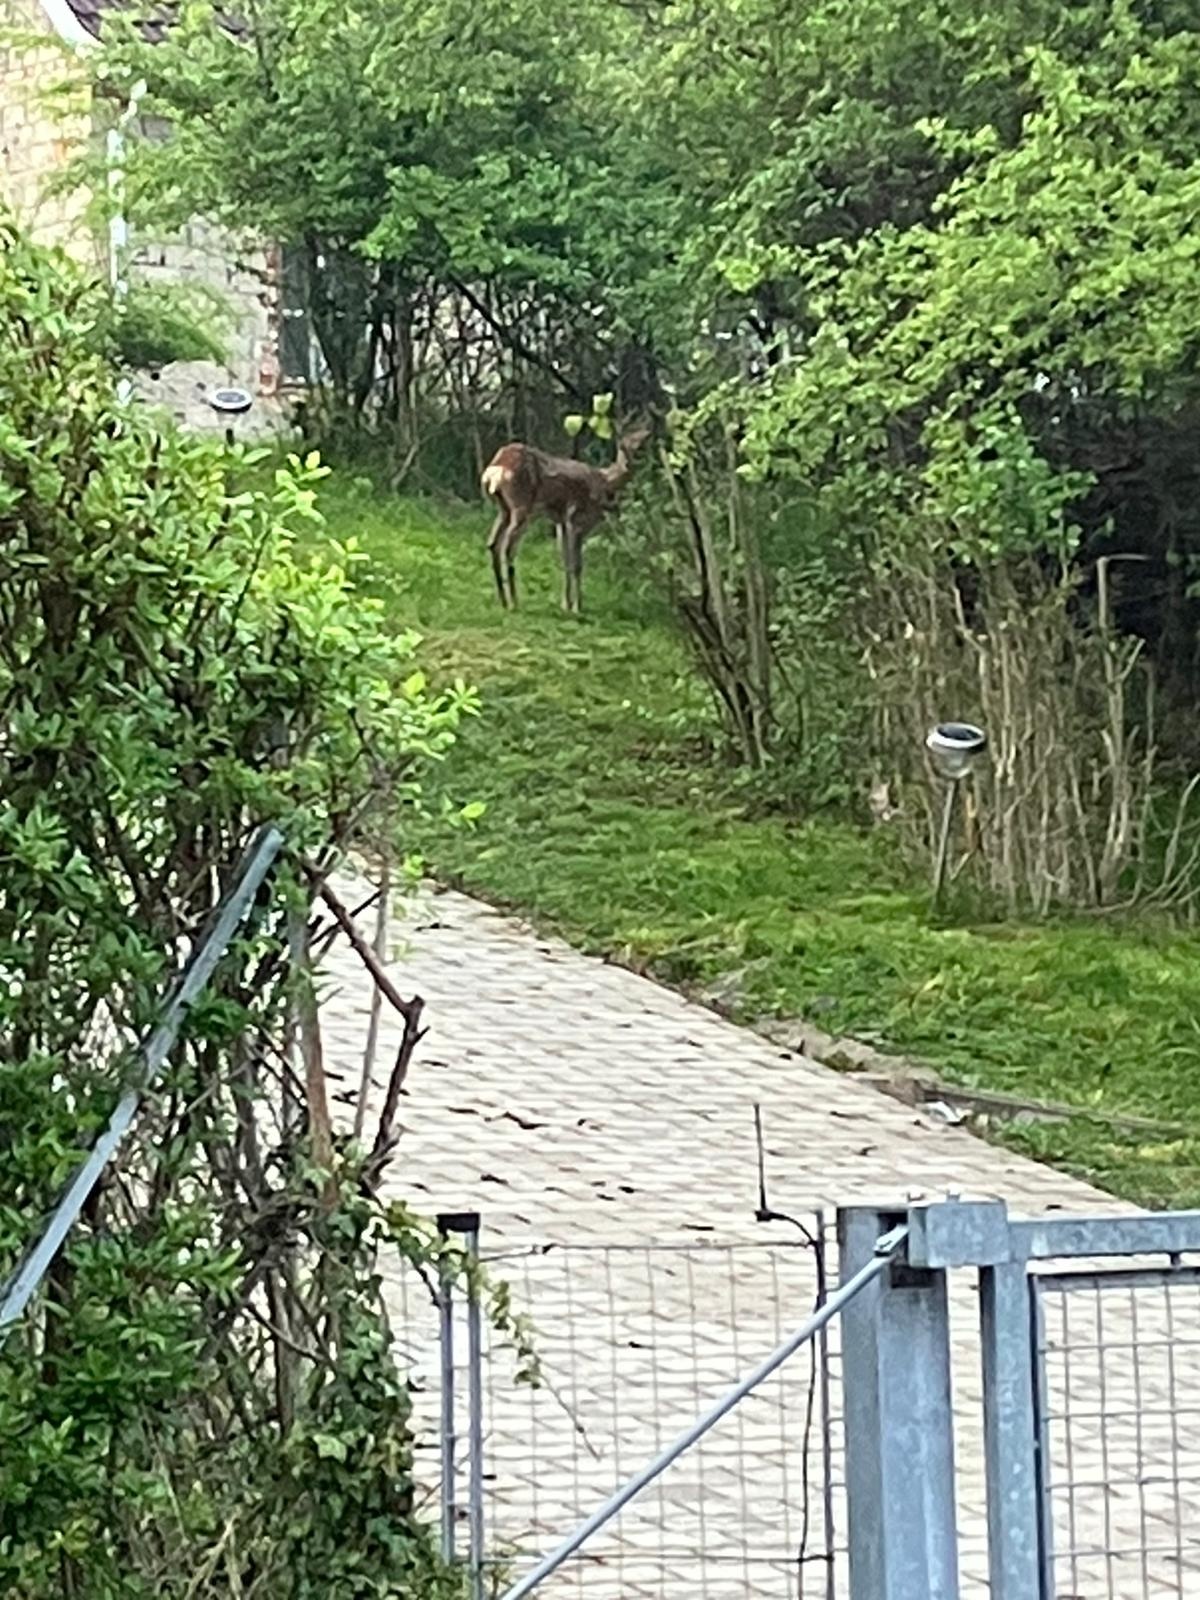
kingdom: Animalia
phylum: Chordata
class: Mammalia
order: Artiodactyla
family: Cervidae
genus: Capreolus
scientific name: Capreolus capreolus
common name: Western roe deer
